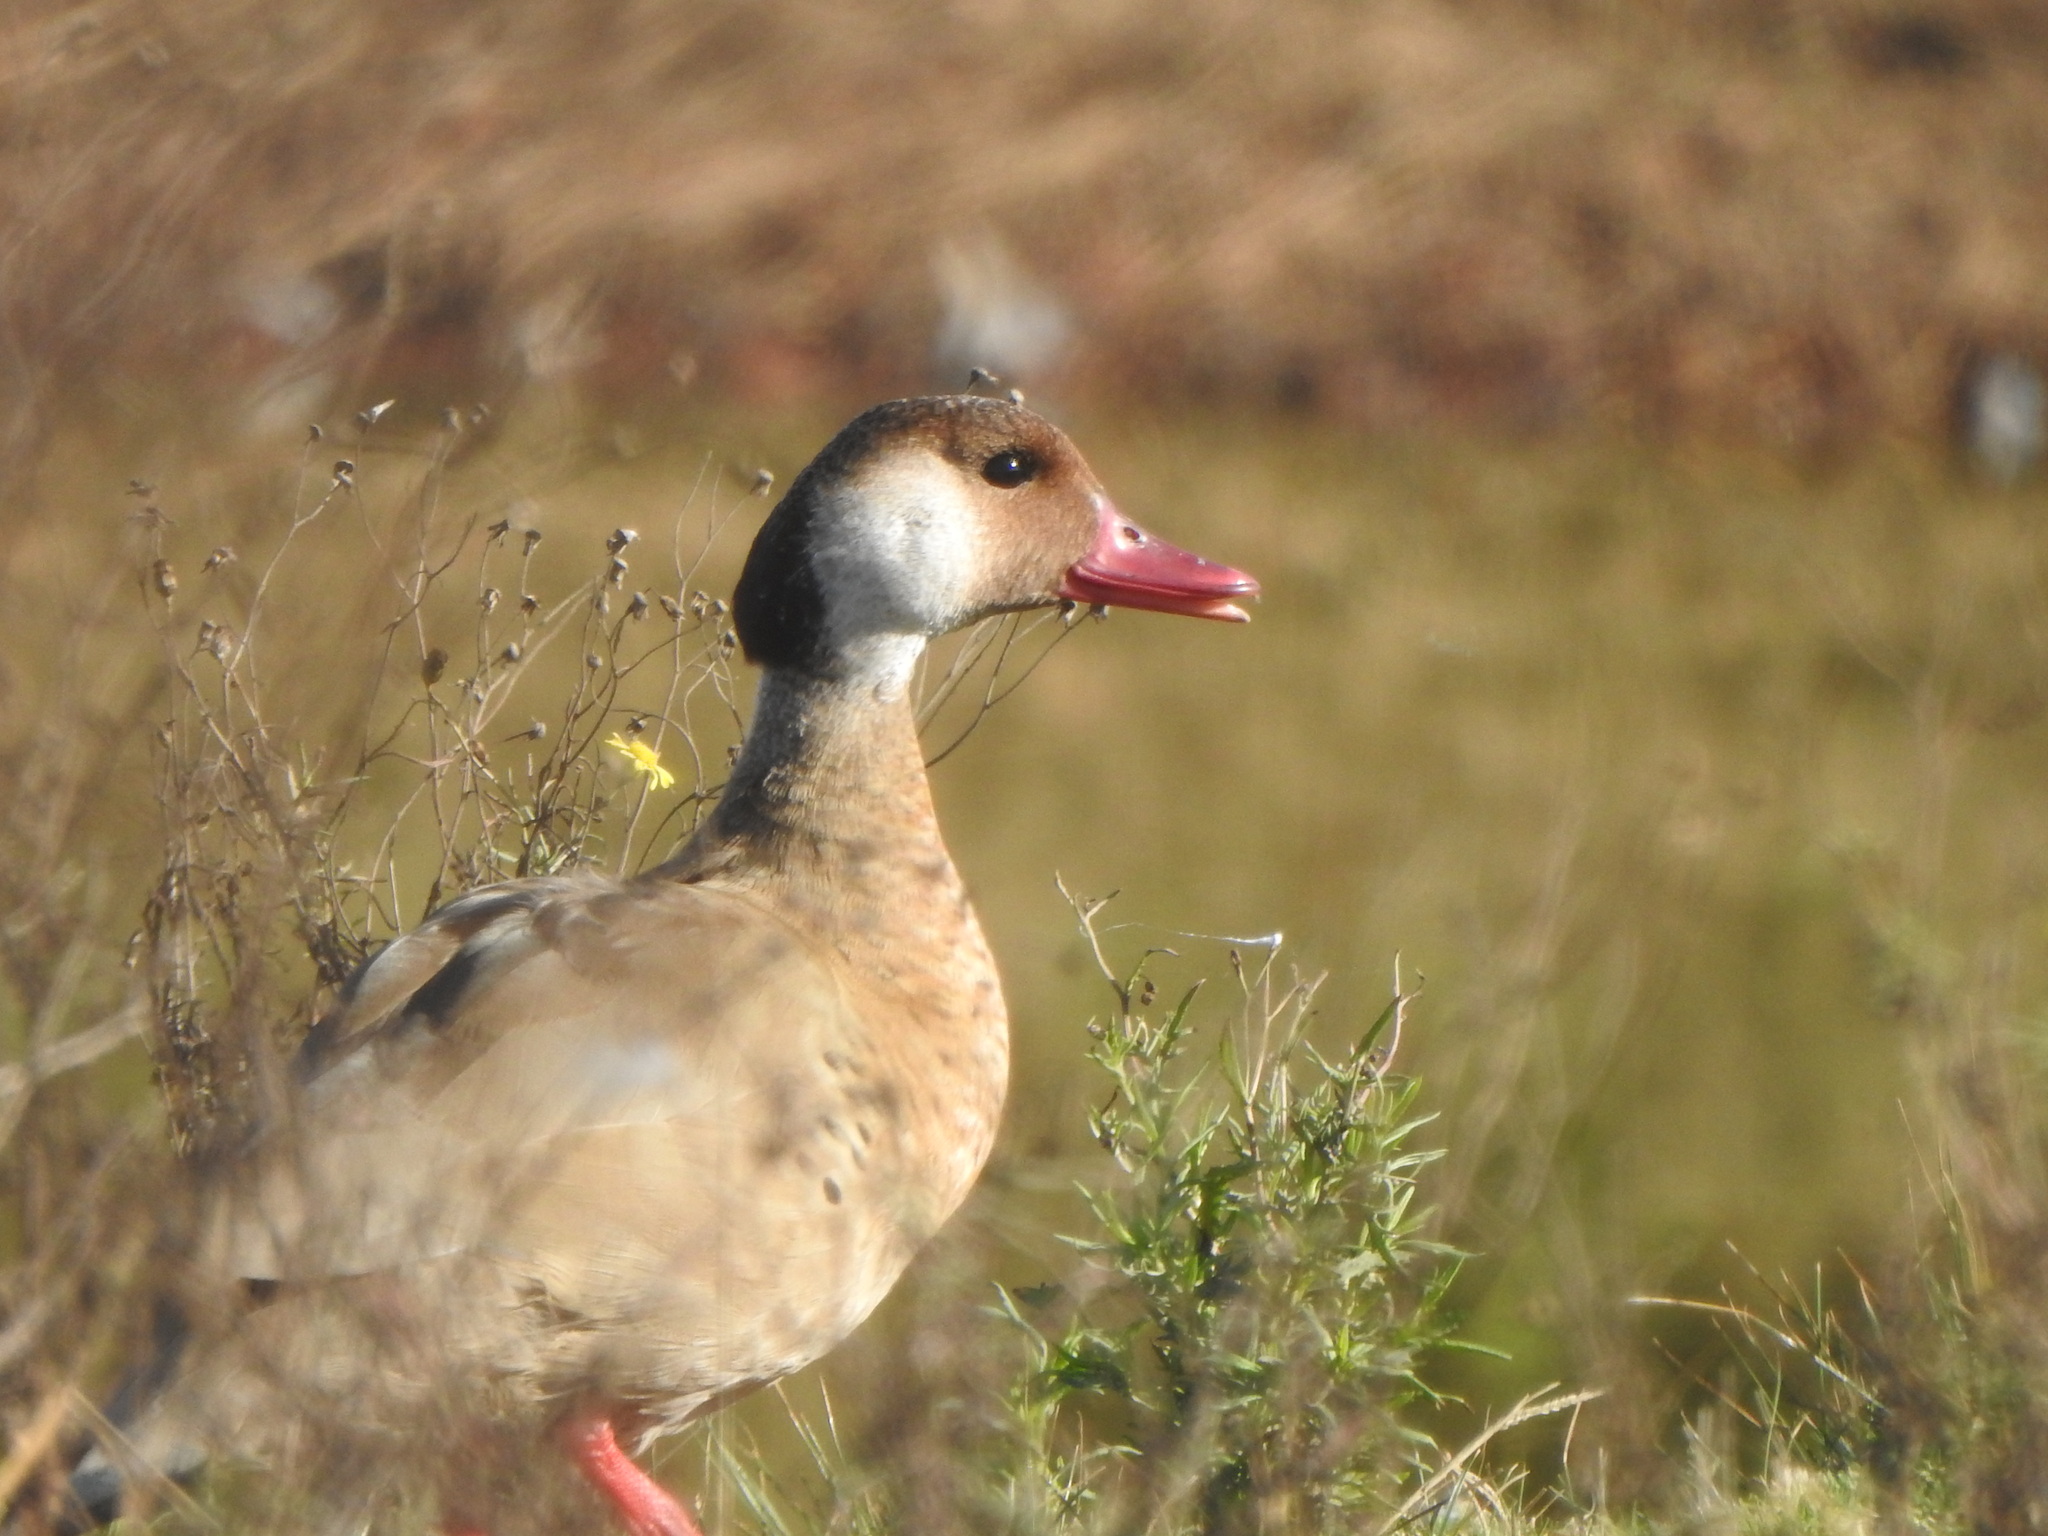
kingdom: Animalia
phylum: Chordata
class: Aves
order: Anseriformes
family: Anatidae
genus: Amazonetta
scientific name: Amazonetta brasiliensis
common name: Brazilian teal
